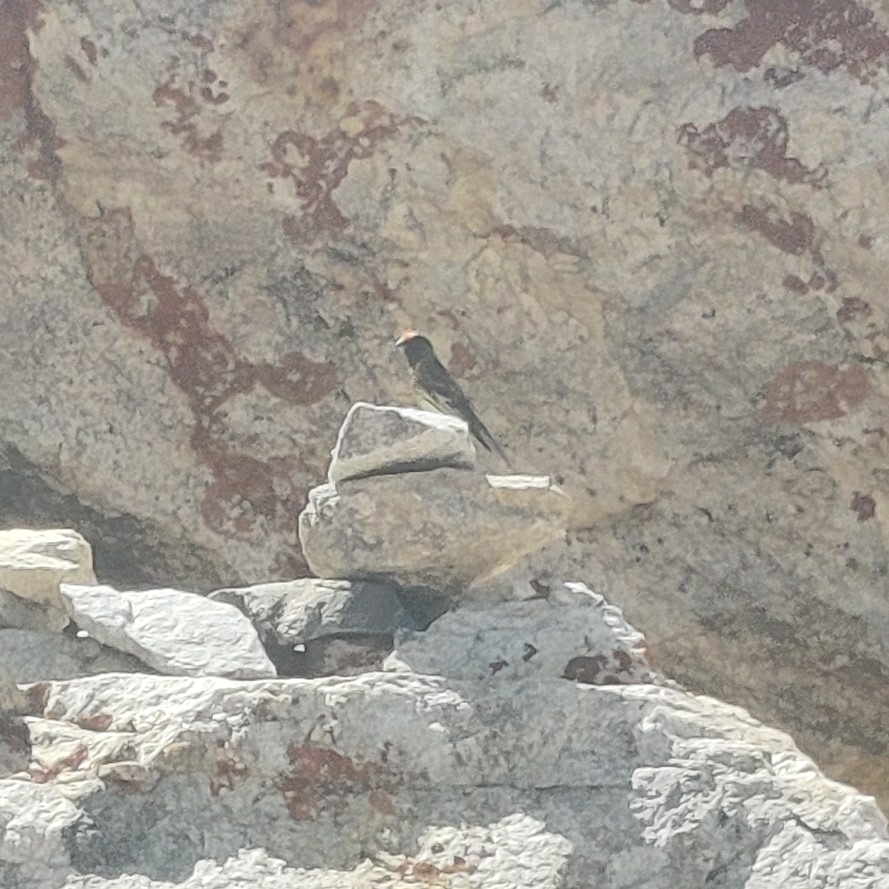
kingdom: Animalia
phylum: Chordata
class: Aves
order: Passeriformes
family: Fringillidae
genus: Serinus
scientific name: Serinus pusillus
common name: Red-fronted serin
